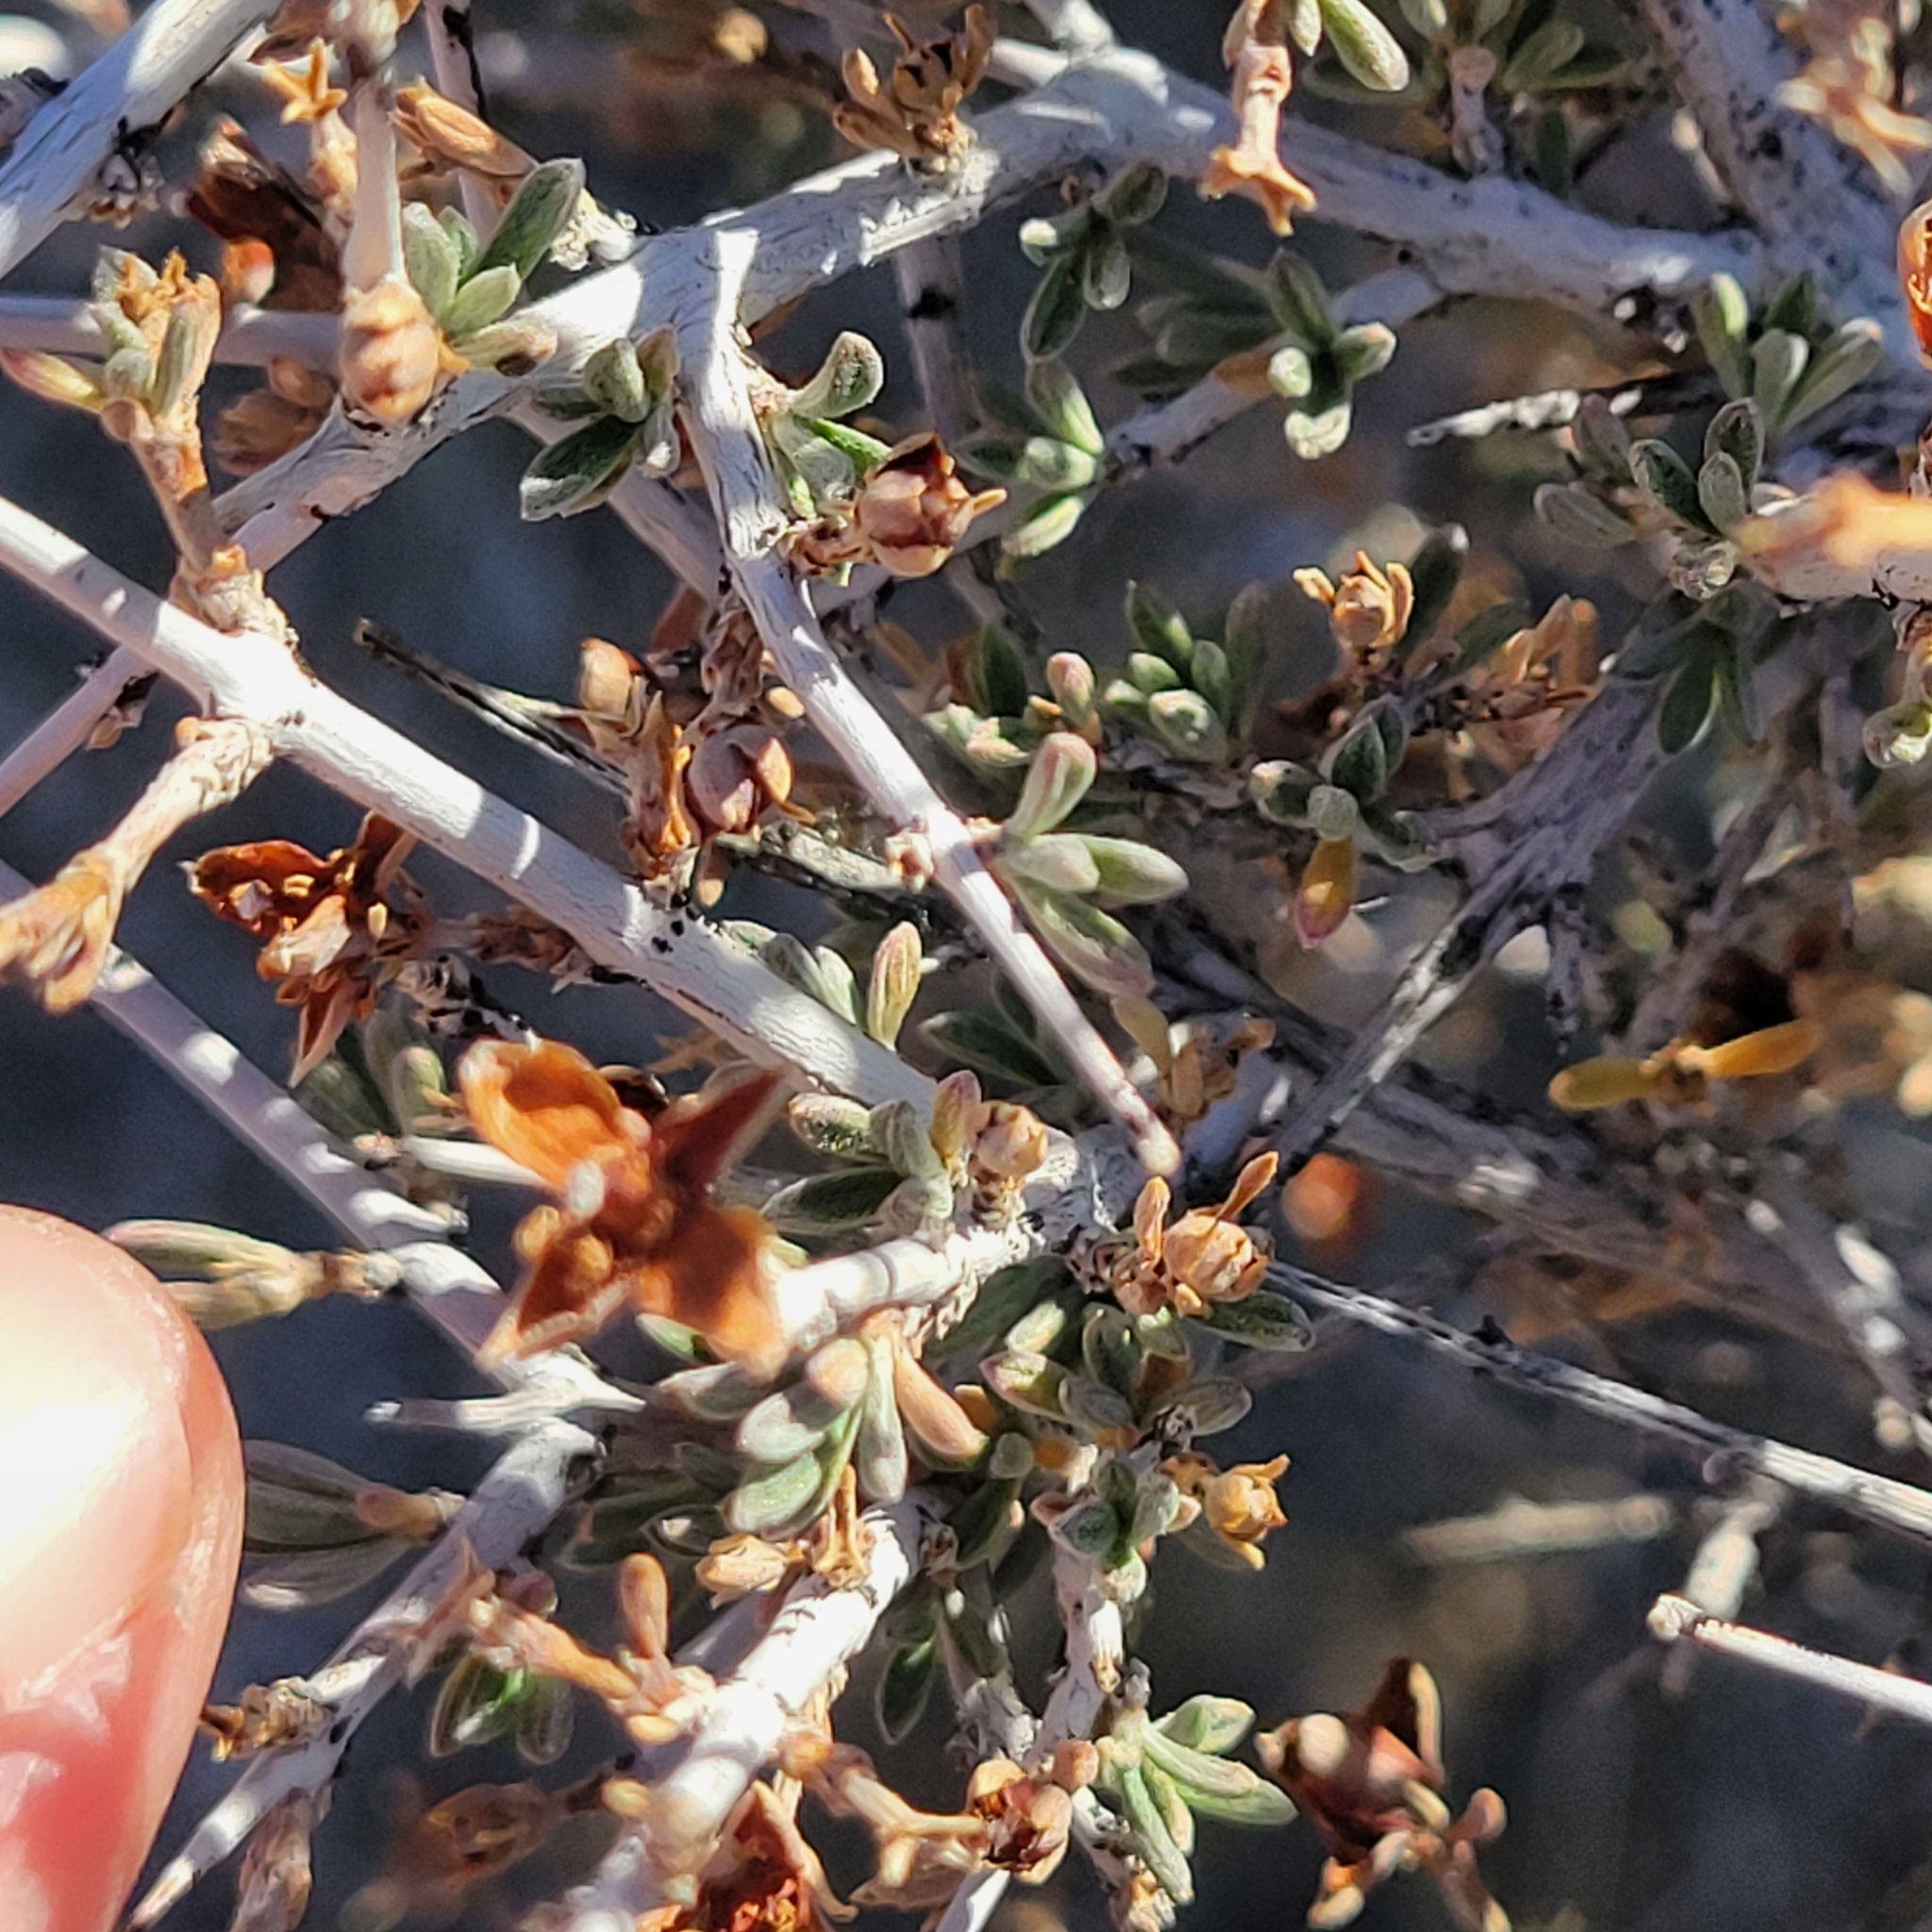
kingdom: Plantae
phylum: Tracheophyta
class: Magnoliopsida
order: Rosales
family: Rosaceae
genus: Coleogyne
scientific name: Coleogyne ramosissima
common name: Blackbrush
